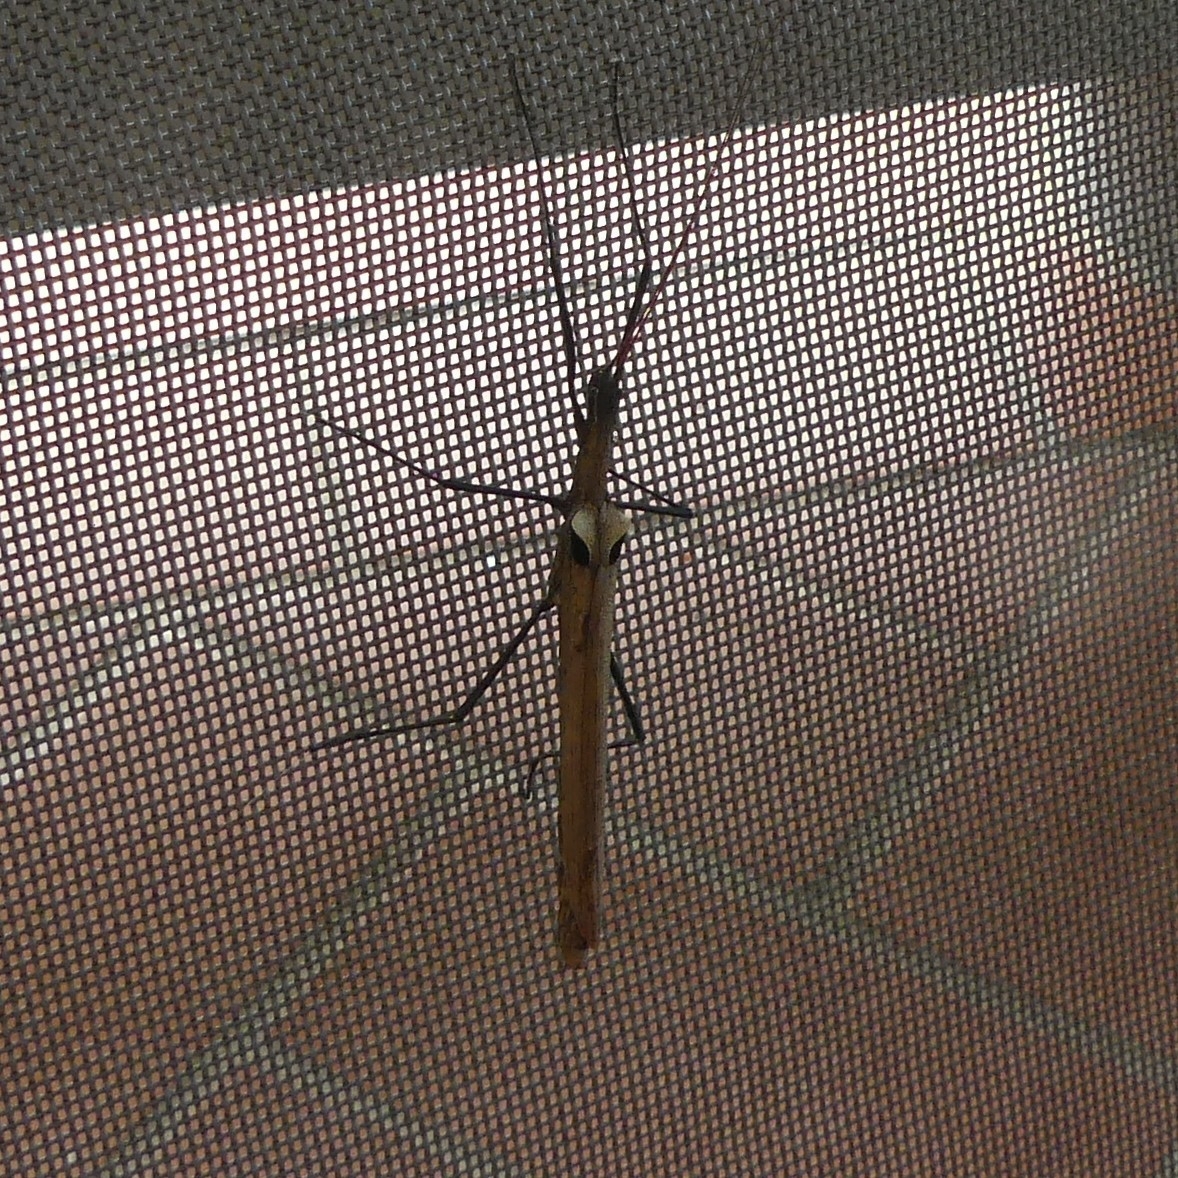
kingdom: Animalia
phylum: Arthropoda
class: Insecta
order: Phasmida
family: Pseudophasmatidae
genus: Pseudophasma
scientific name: Pseudophasma phthisicum
